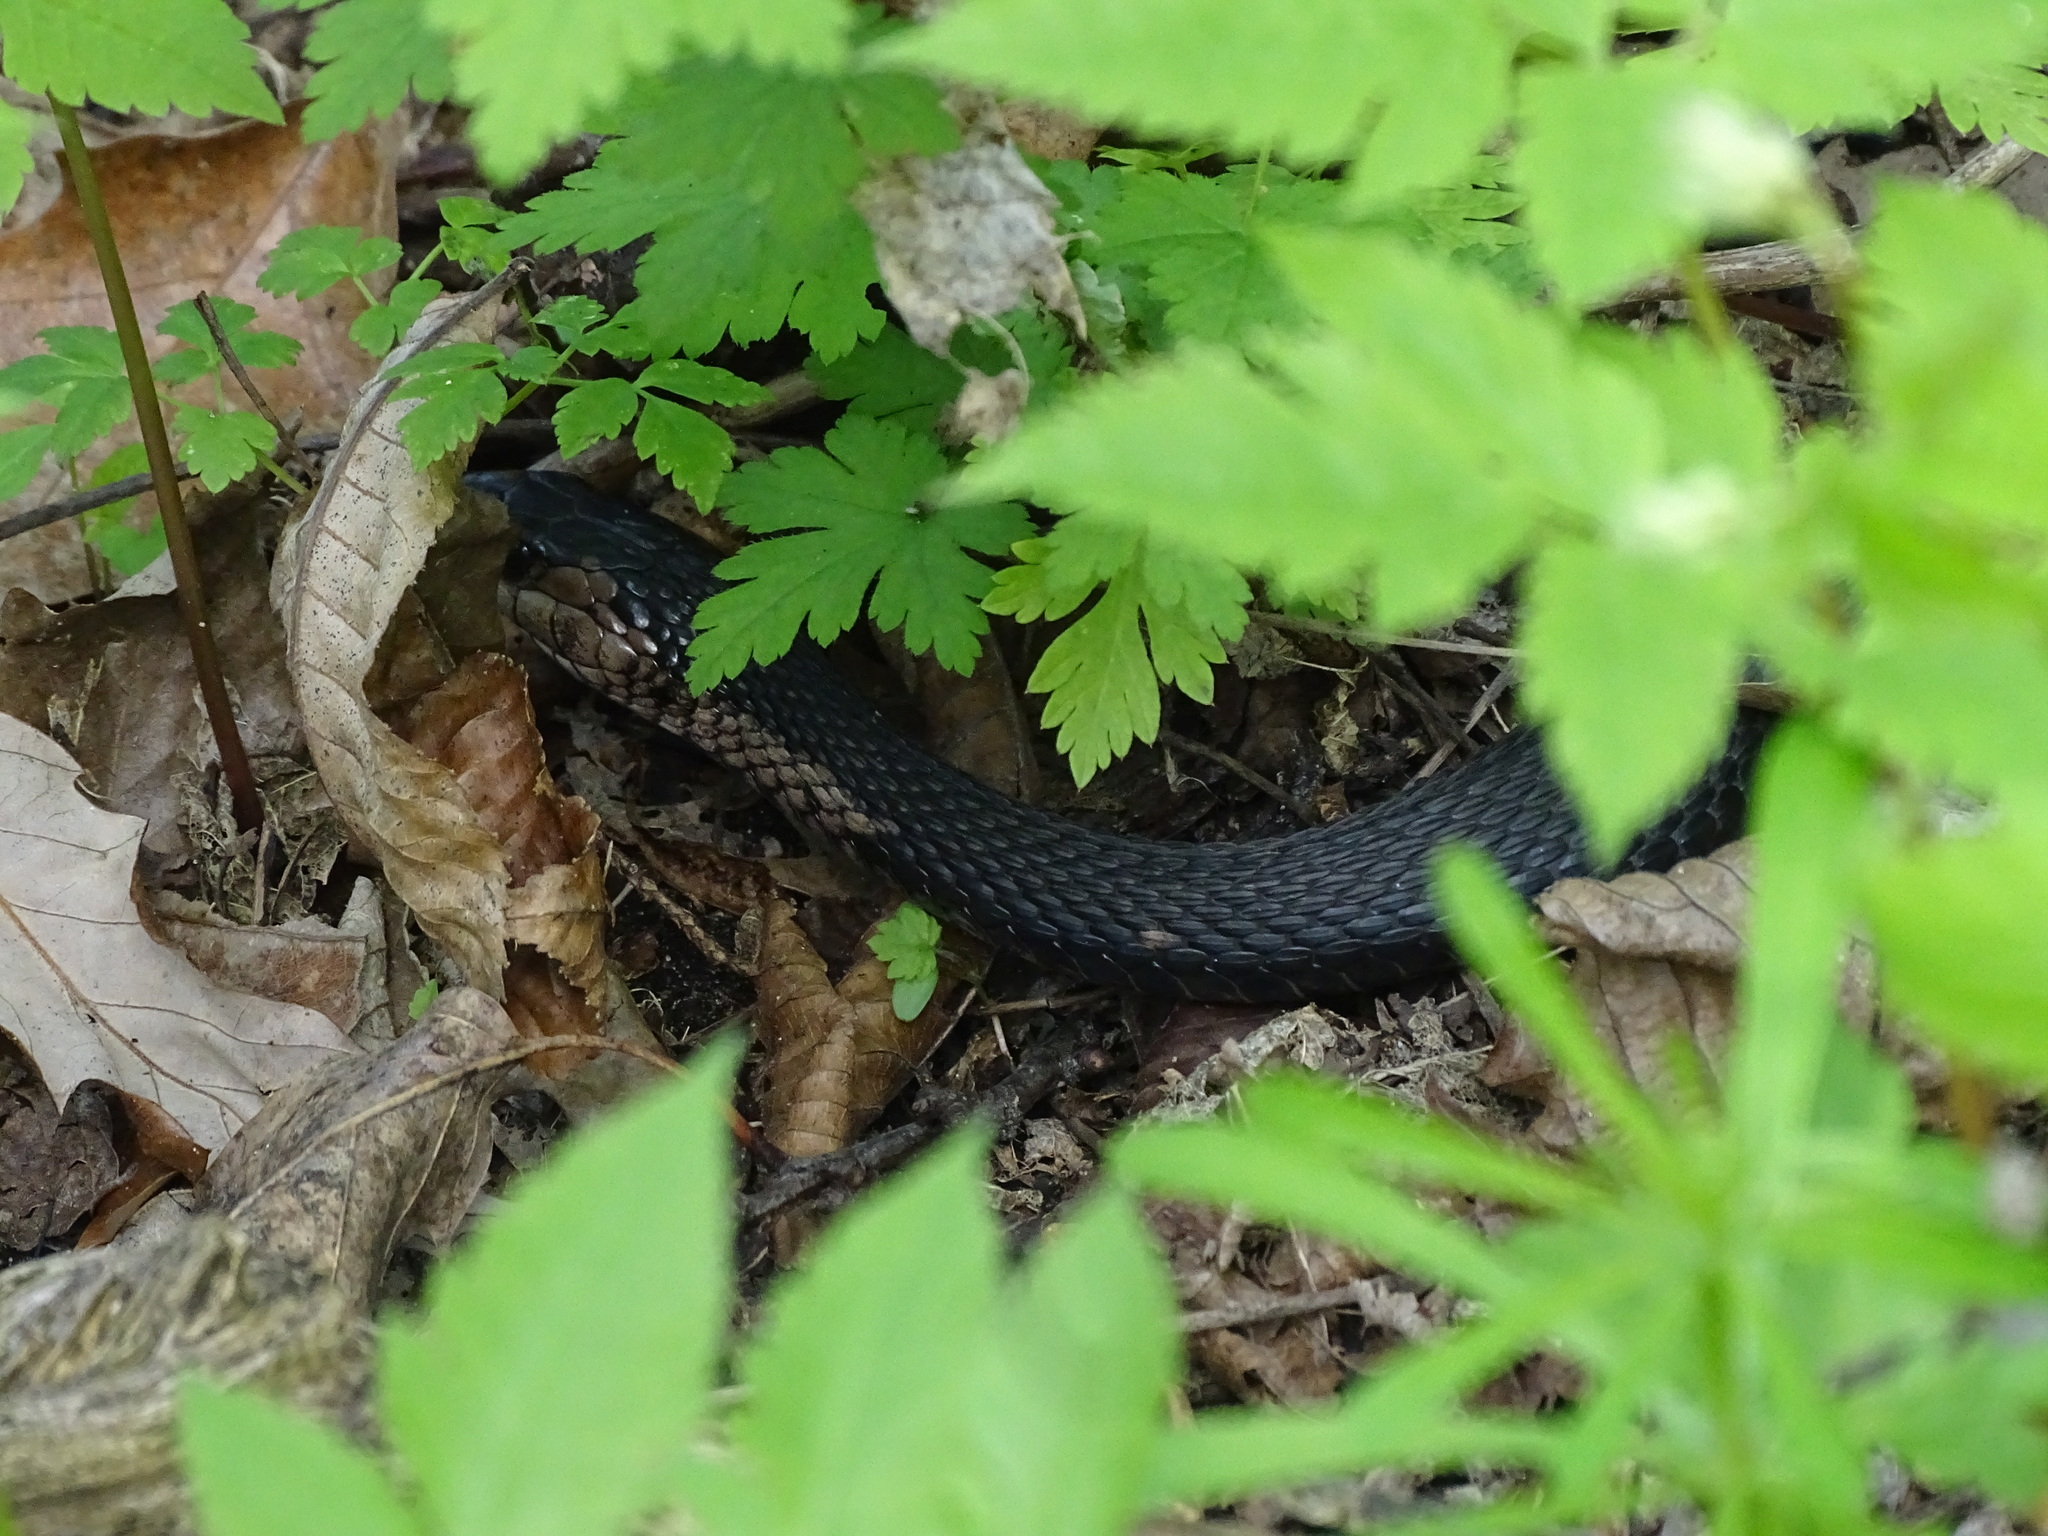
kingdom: Animalia
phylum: Chordata
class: Squamata
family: Colubridae
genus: Thamnophis
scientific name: Thamnophis sirtalis
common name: Common garter snake
